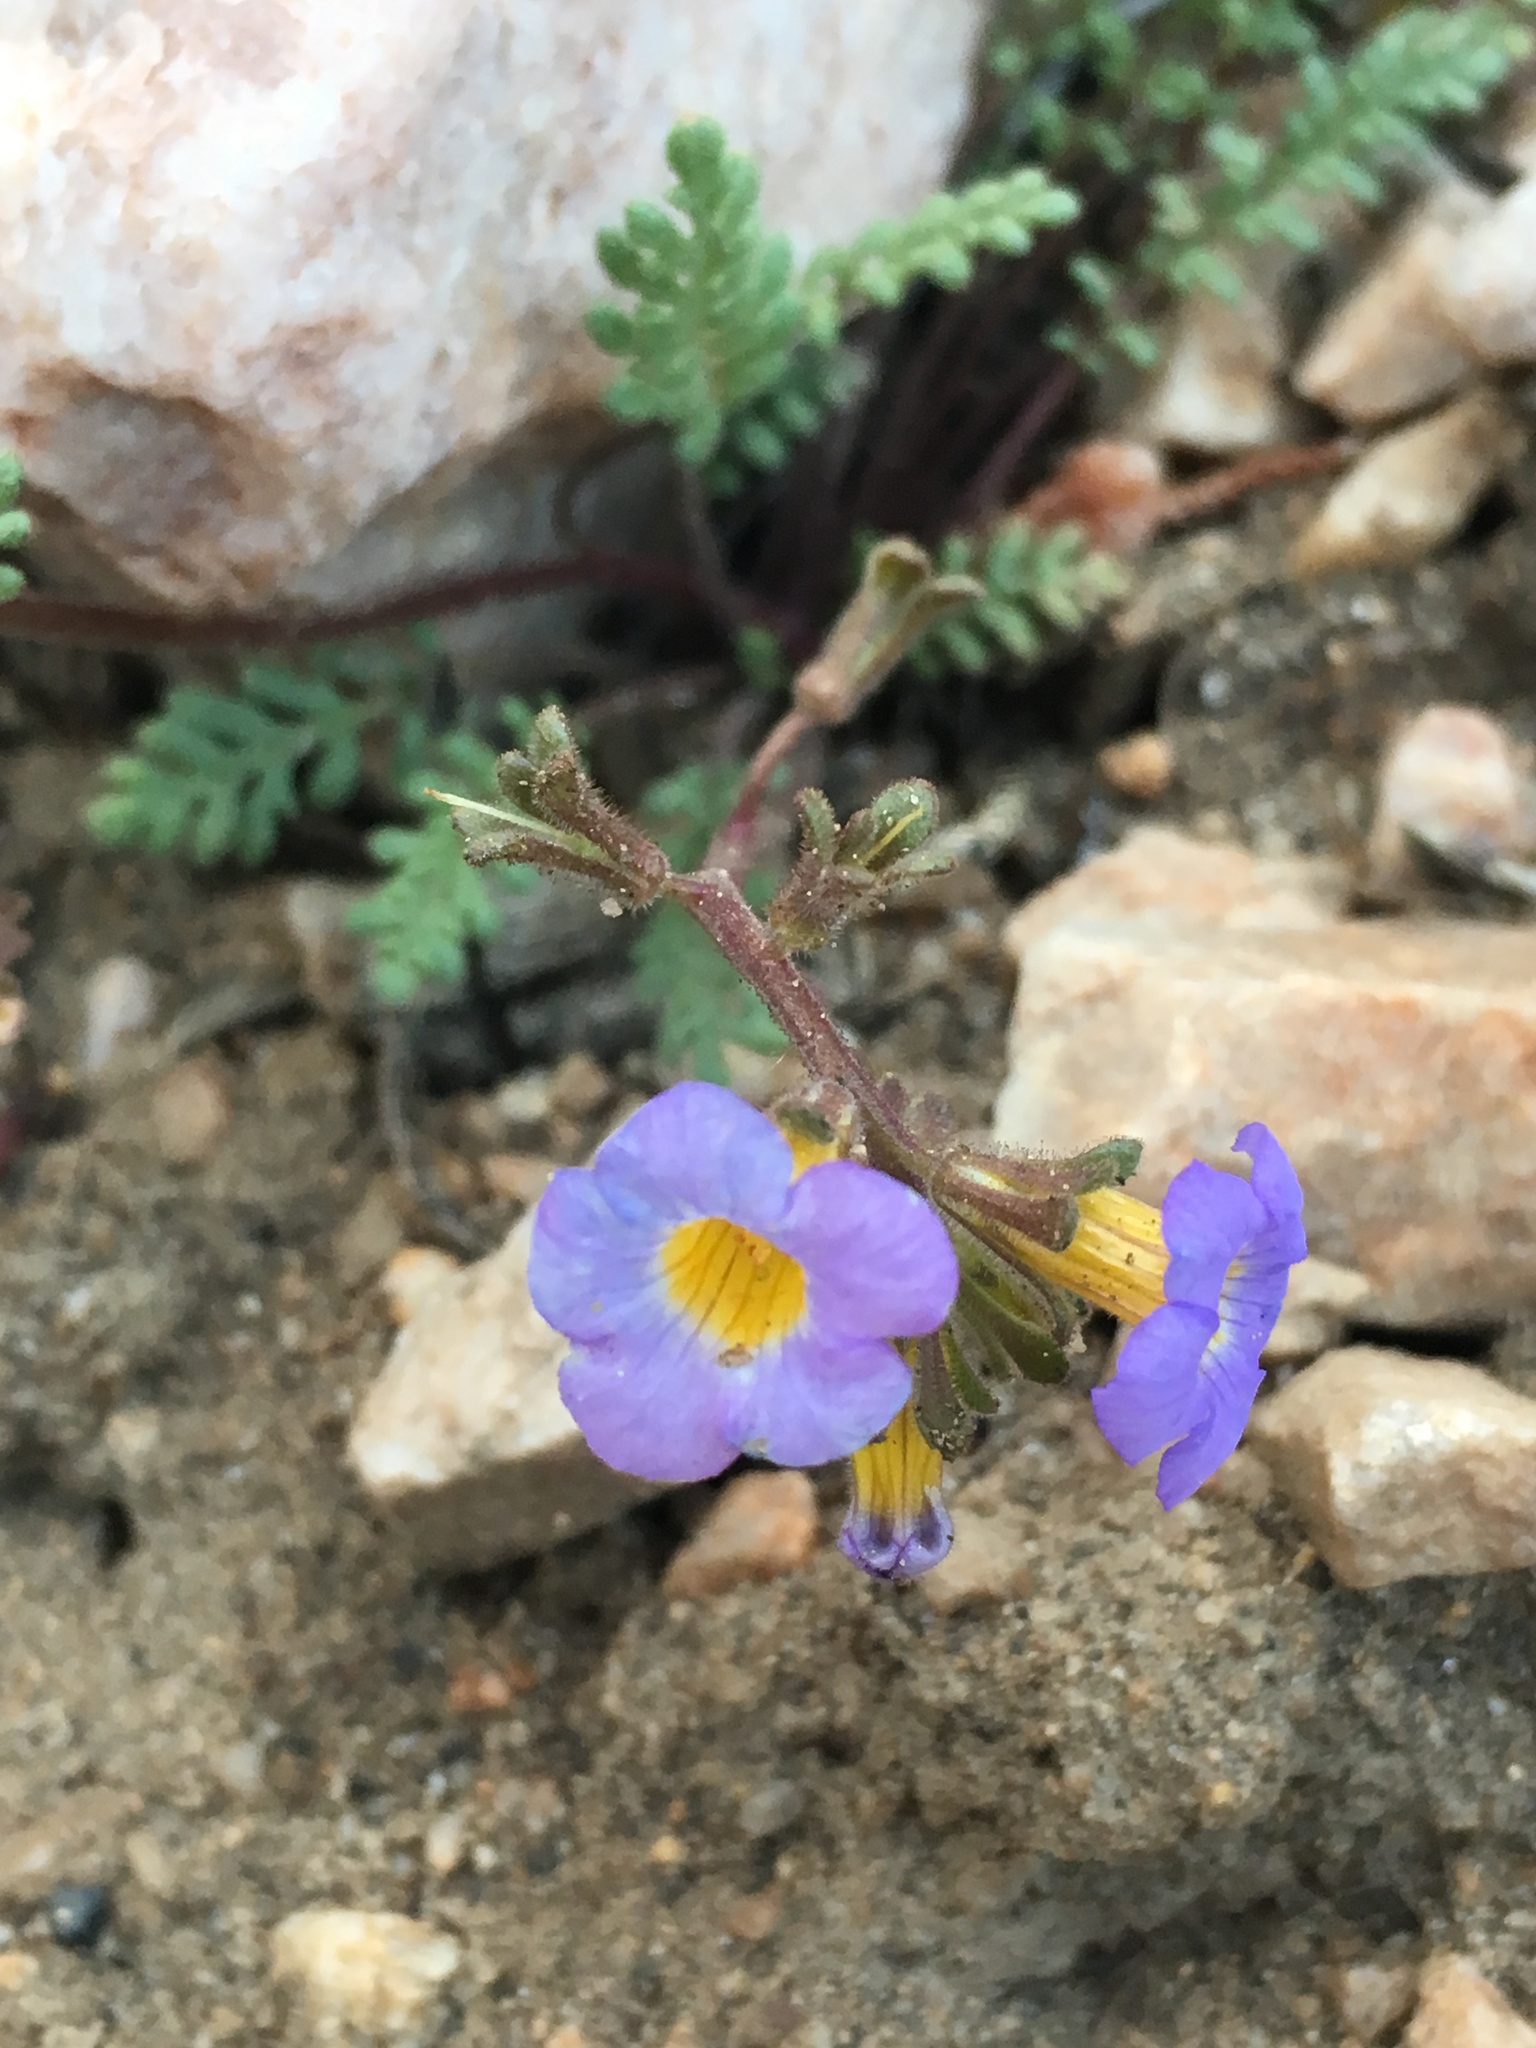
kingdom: Plantae
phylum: Tracheophyta
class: Magnoliopsida
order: Boraginales
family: Hydrophyllaceae
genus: Phacelia
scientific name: Phacelia fremontii
